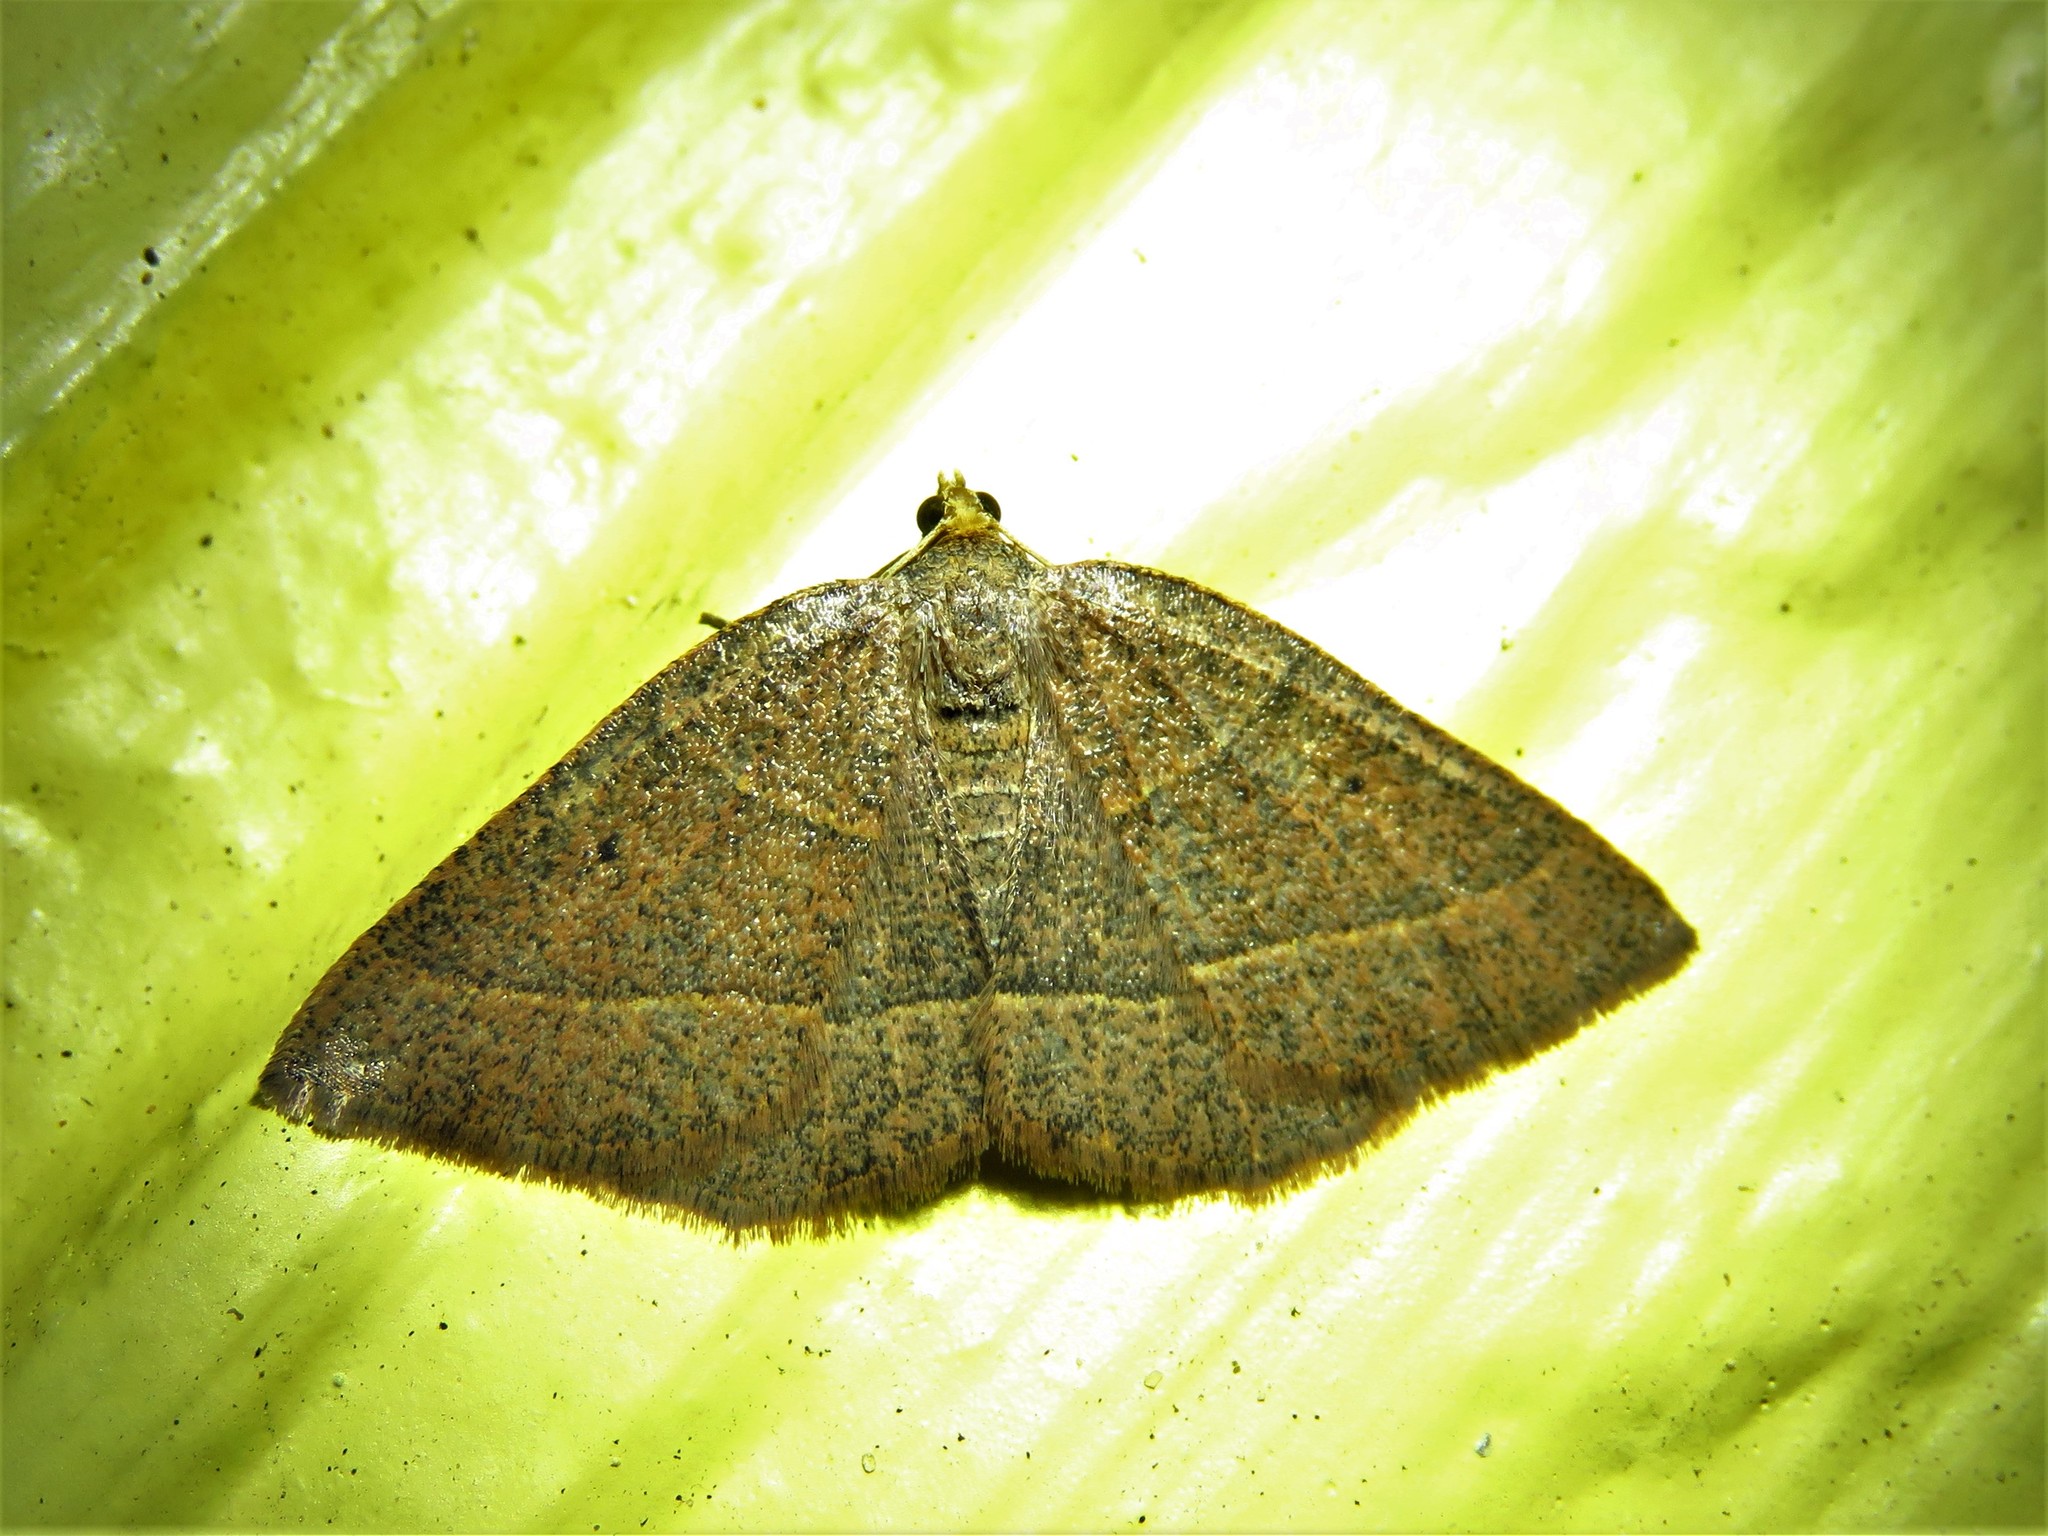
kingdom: Animalia
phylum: Arthropoda
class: Insecta
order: Lepidoptera
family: Geometridae
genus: Episemasia
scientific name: Episemasia cervinaria
